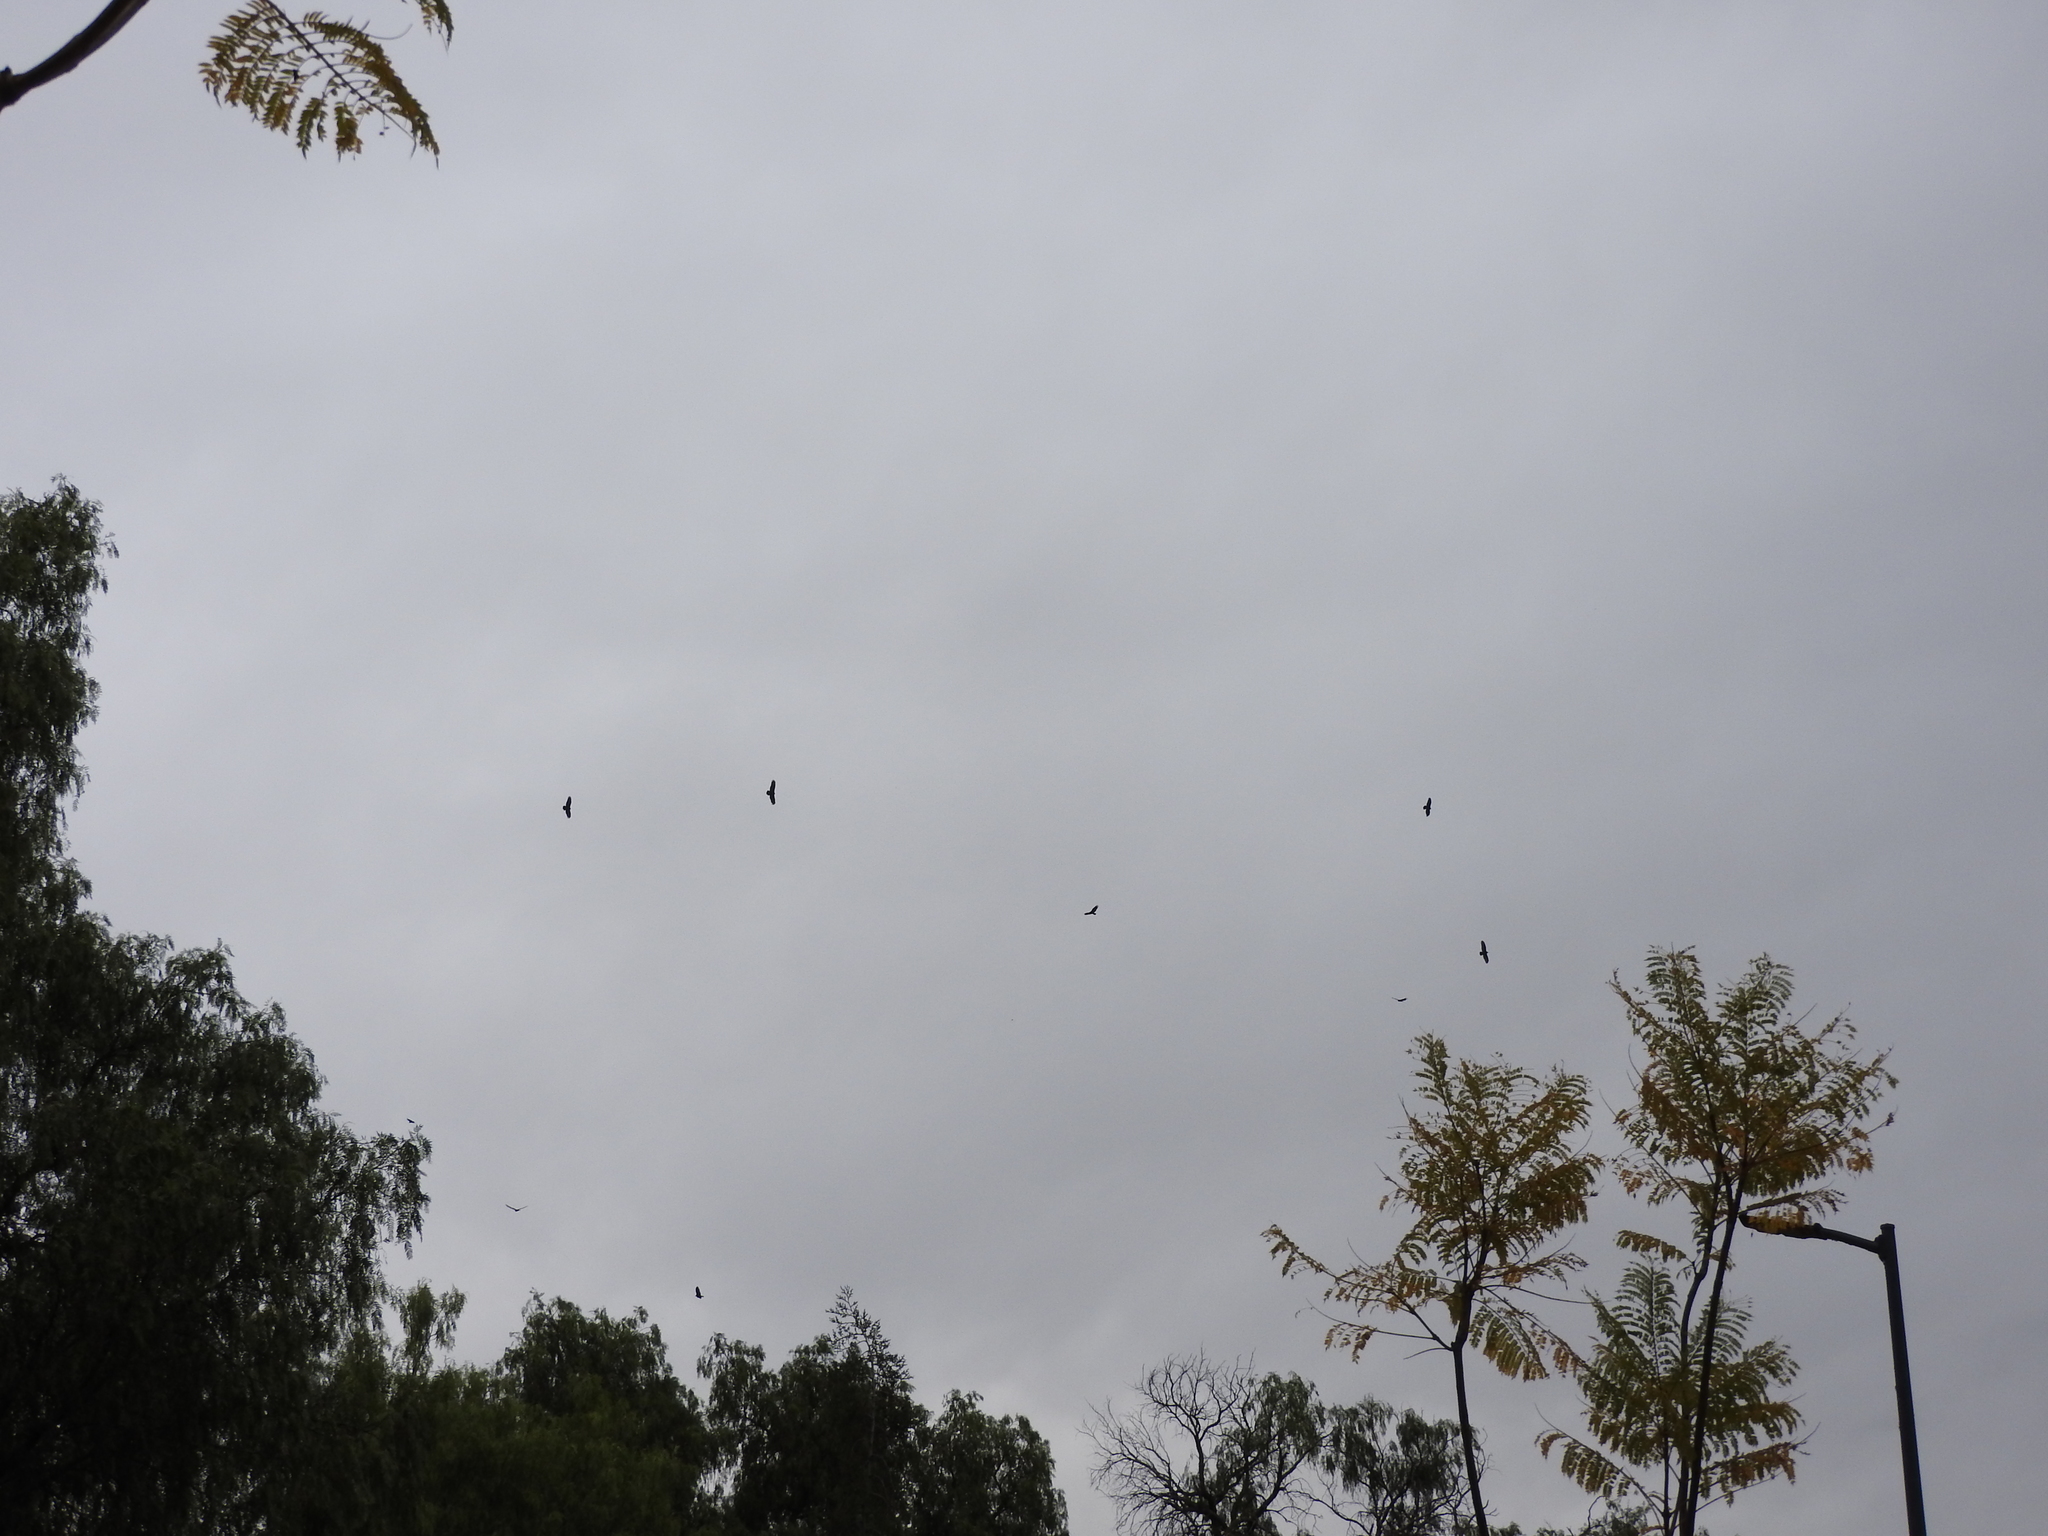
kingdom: Animalia
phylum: Chordata
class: Aves
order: Accipitriformes
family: Cathartidae
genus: Cathartes
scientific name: Cathartes aura
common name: Turkey vulture
